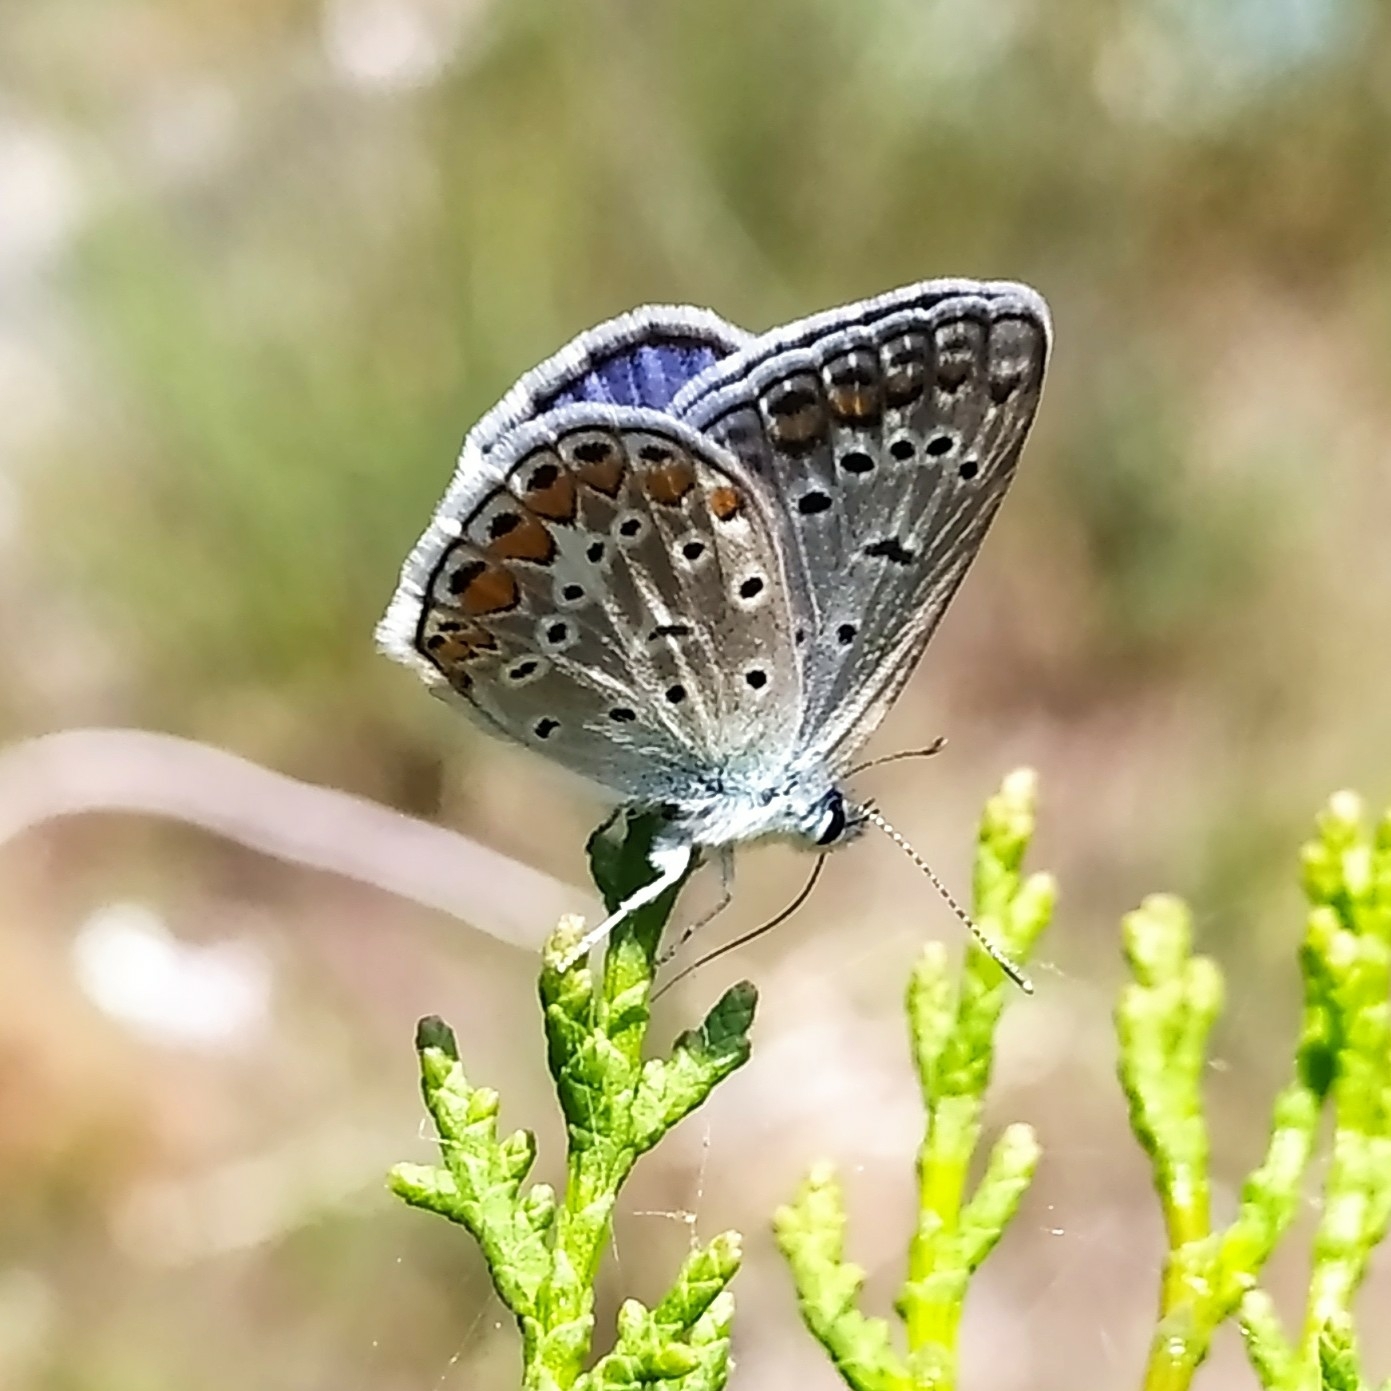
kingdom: Animalia
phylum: Arthropoda
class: Insecta
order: Lepidoptera
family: Lycaenidae
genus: Polyommatus
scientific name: Polyommatus icarus
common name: Common blue
